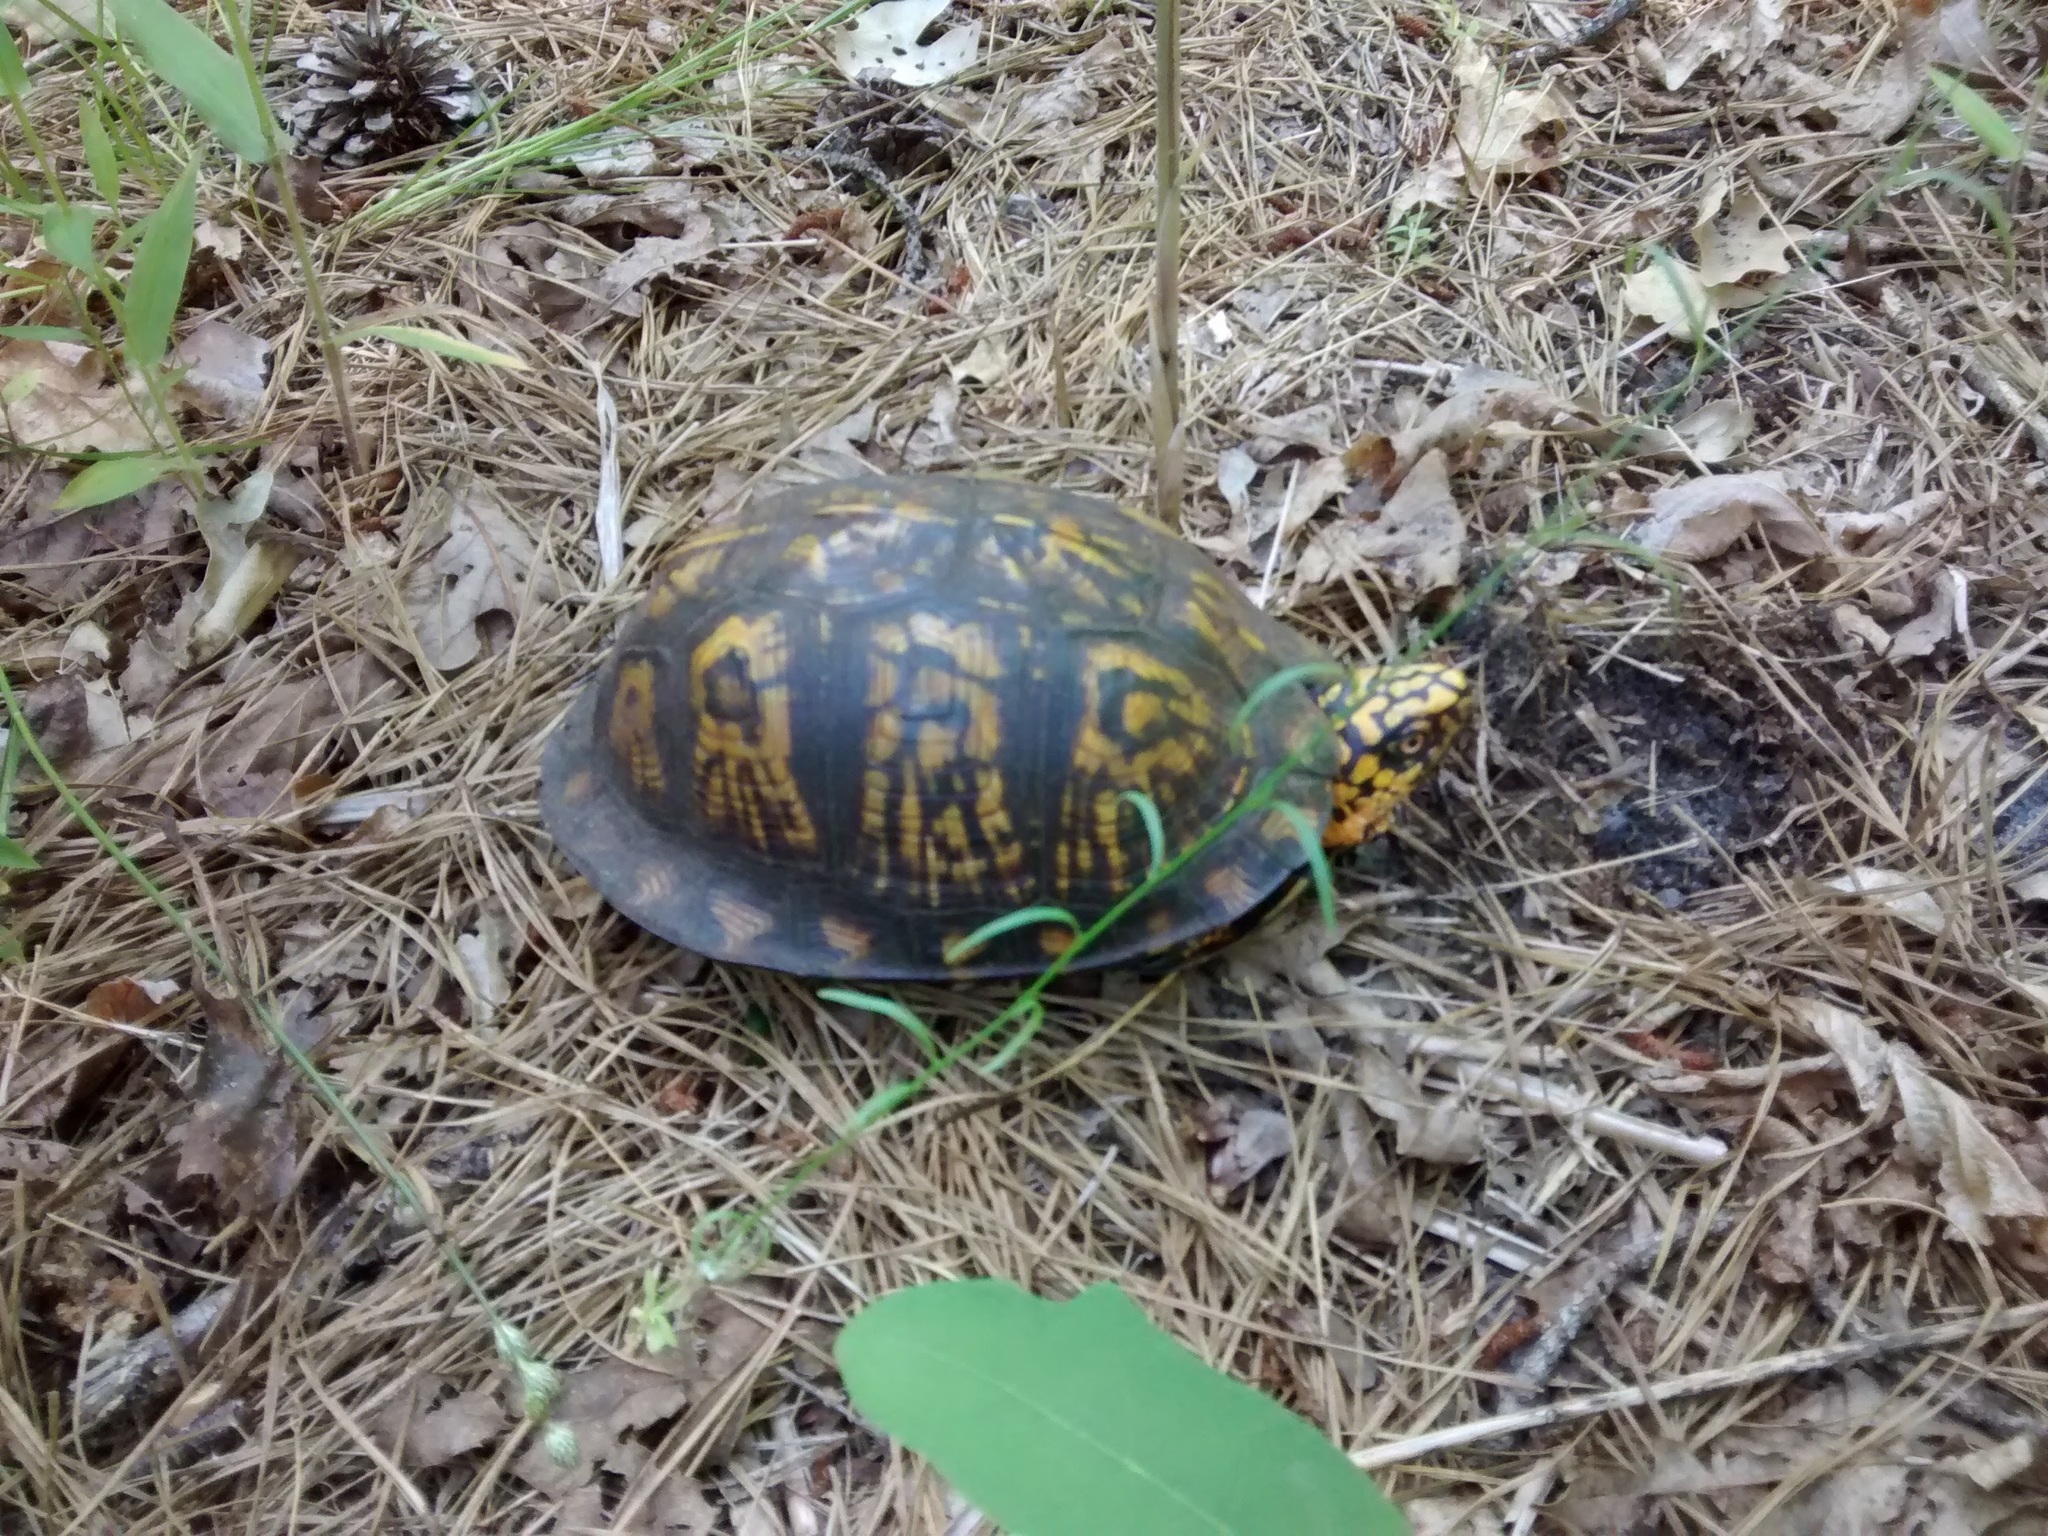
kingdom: Animalia
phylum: Chordata
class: Testudines
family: Emydidae
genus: Terrapene
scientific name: Terrapene carolina
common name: Common box turtle
